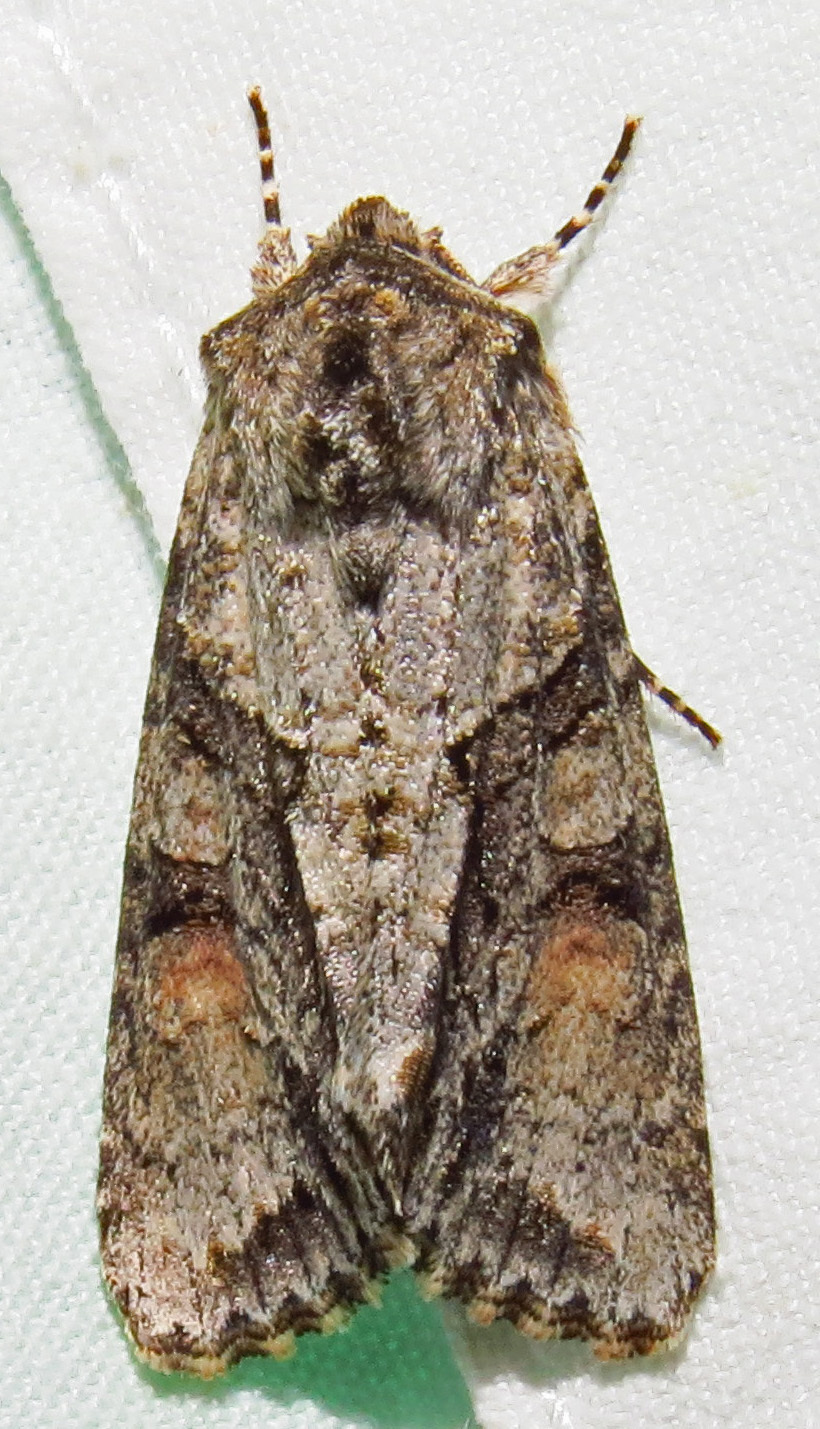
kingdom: Animalia
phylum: Arthropoda
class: Insecta
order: Lepidoptera
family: Noctuidae
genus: Achatia
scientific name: Achatia distincta
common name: Distinct quaker
